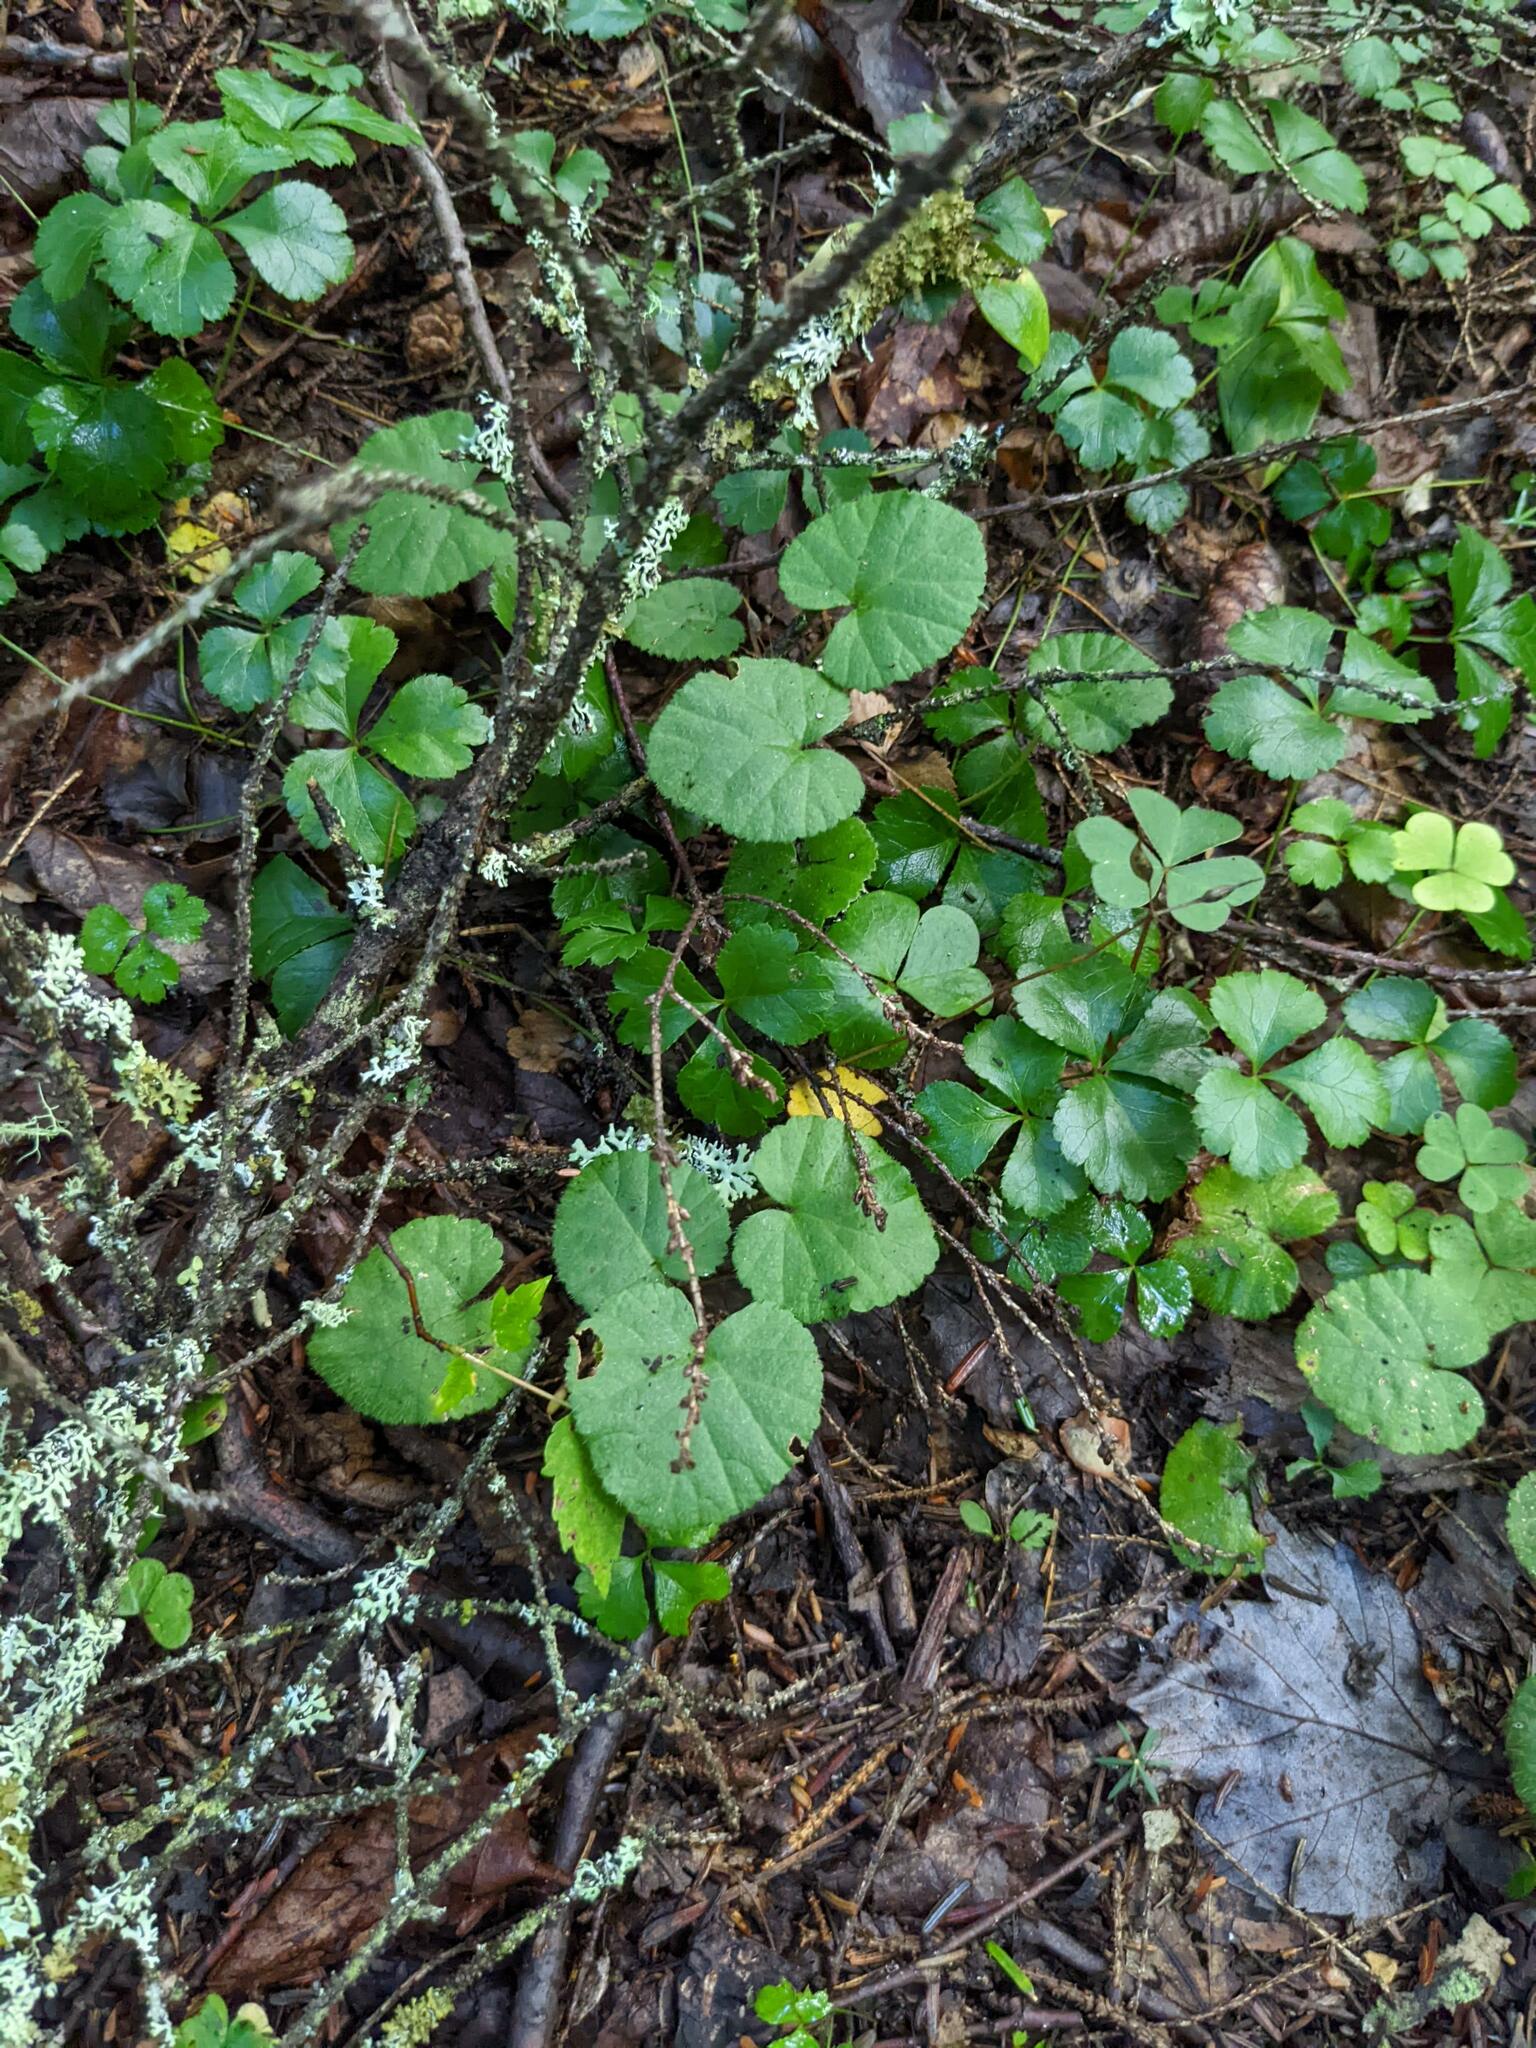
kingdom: Plantae
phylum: Tracheophyta
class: Magnoliopsida
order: Rosales
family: Rosaceae
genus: Dalibarda
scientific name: Dalibarda repens
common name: Dewdrop
